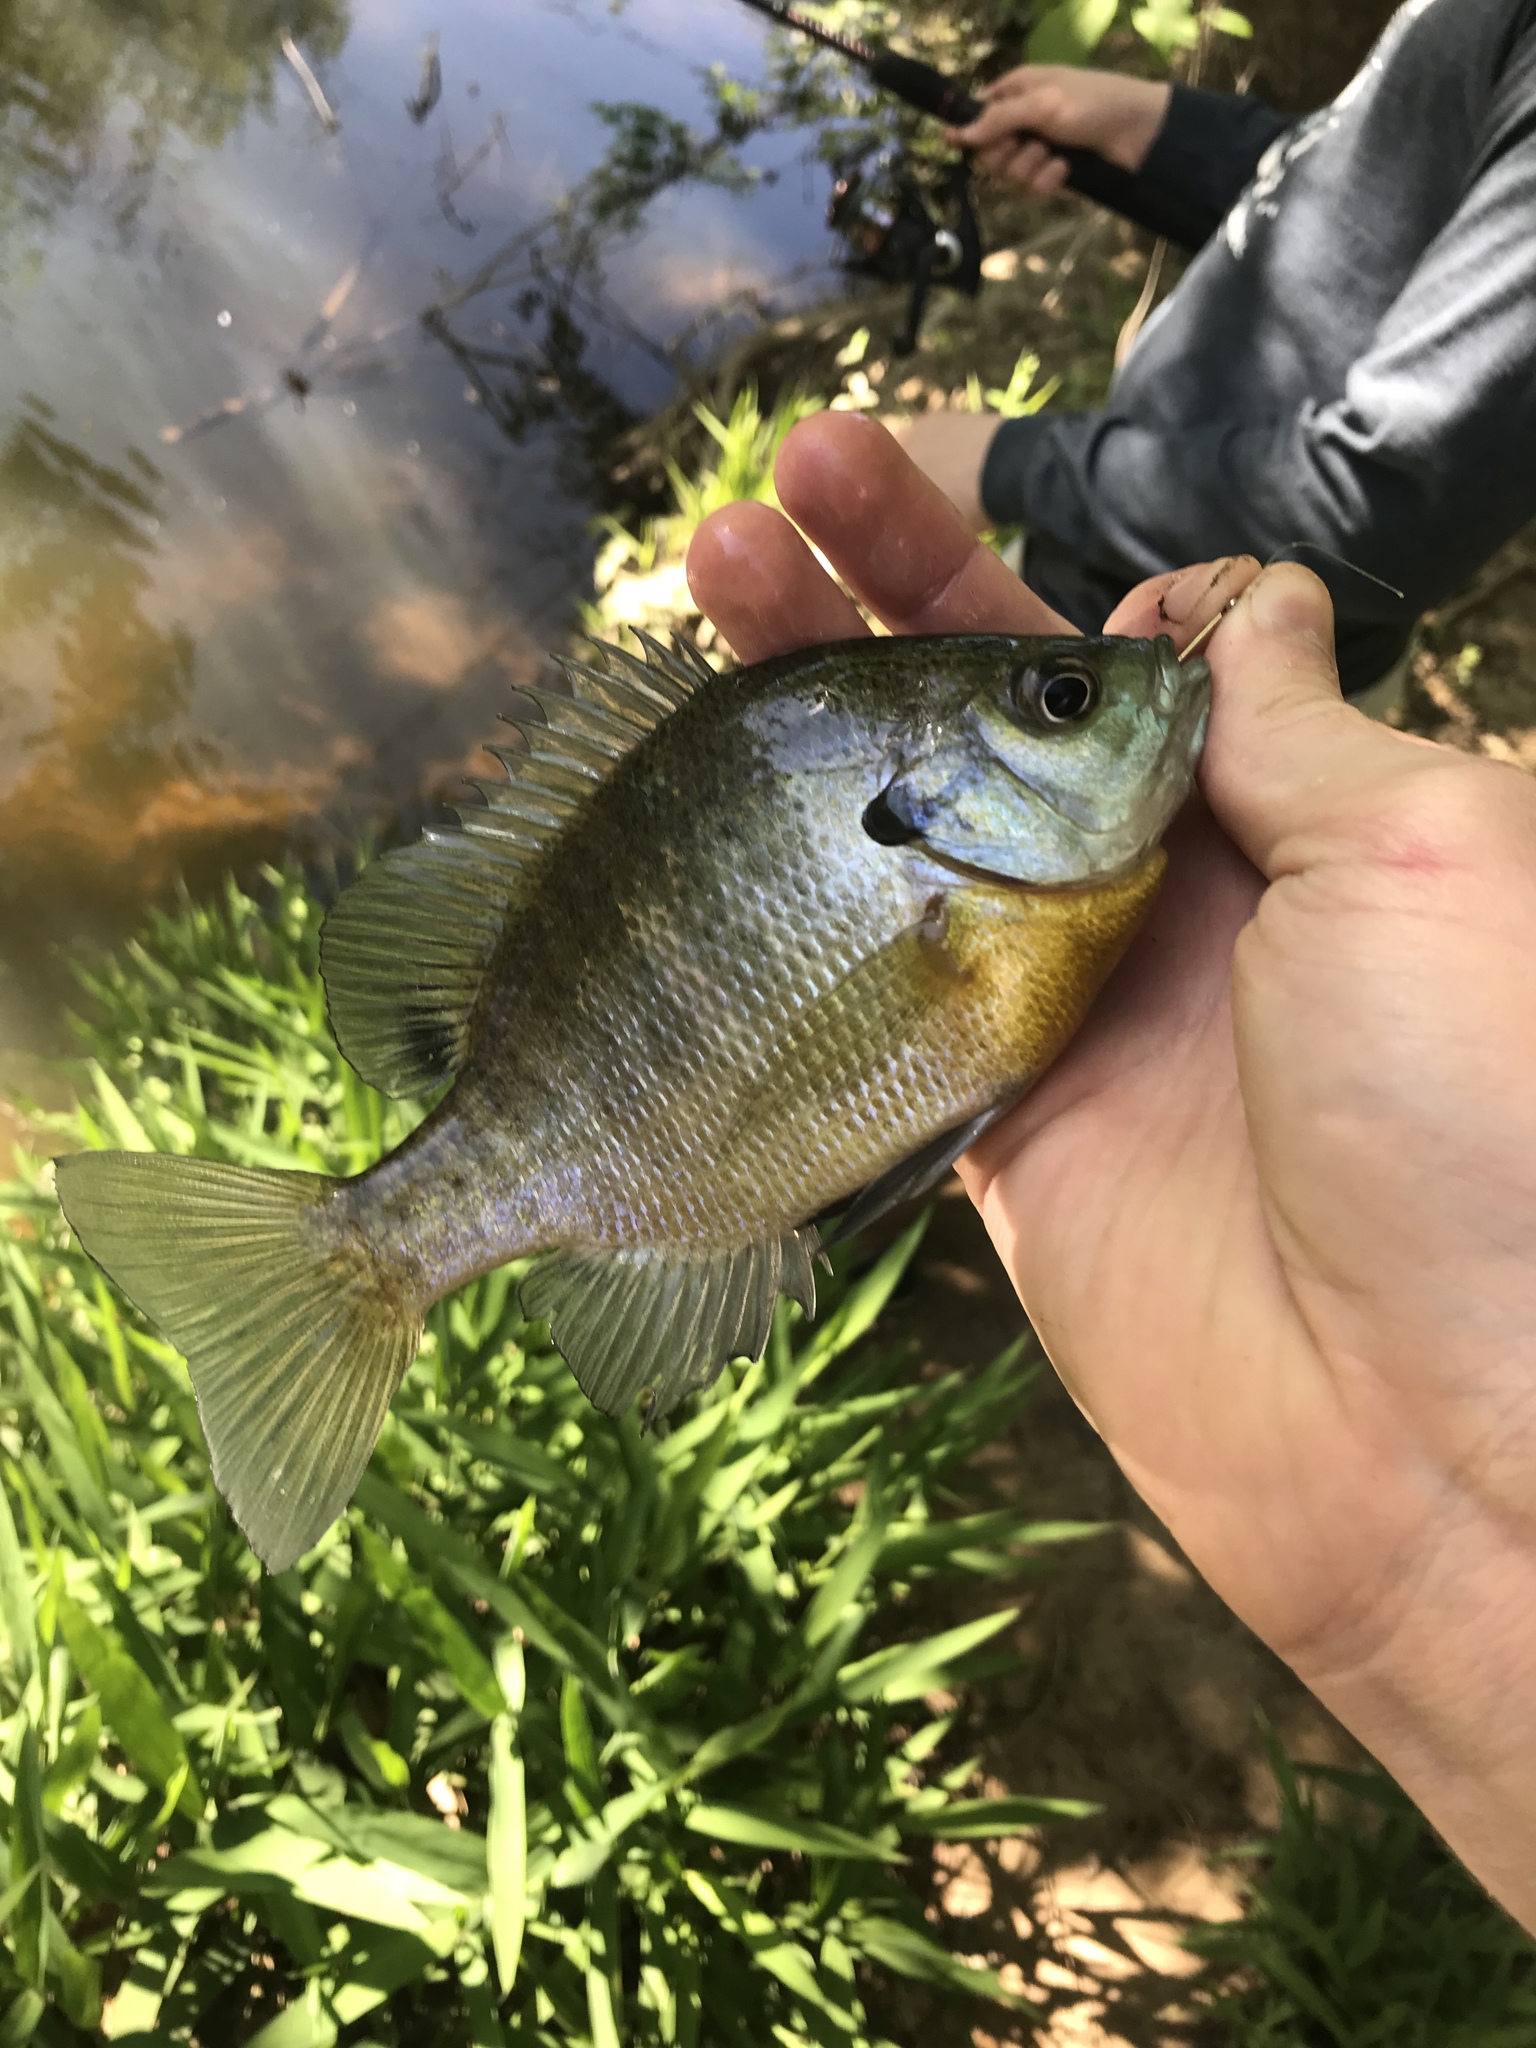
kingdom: Animalia
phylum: Chordata
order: Perciformes
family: Centrarchidae
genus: Lepomis
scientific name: Lepomis macrochirus
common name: Bluegill
